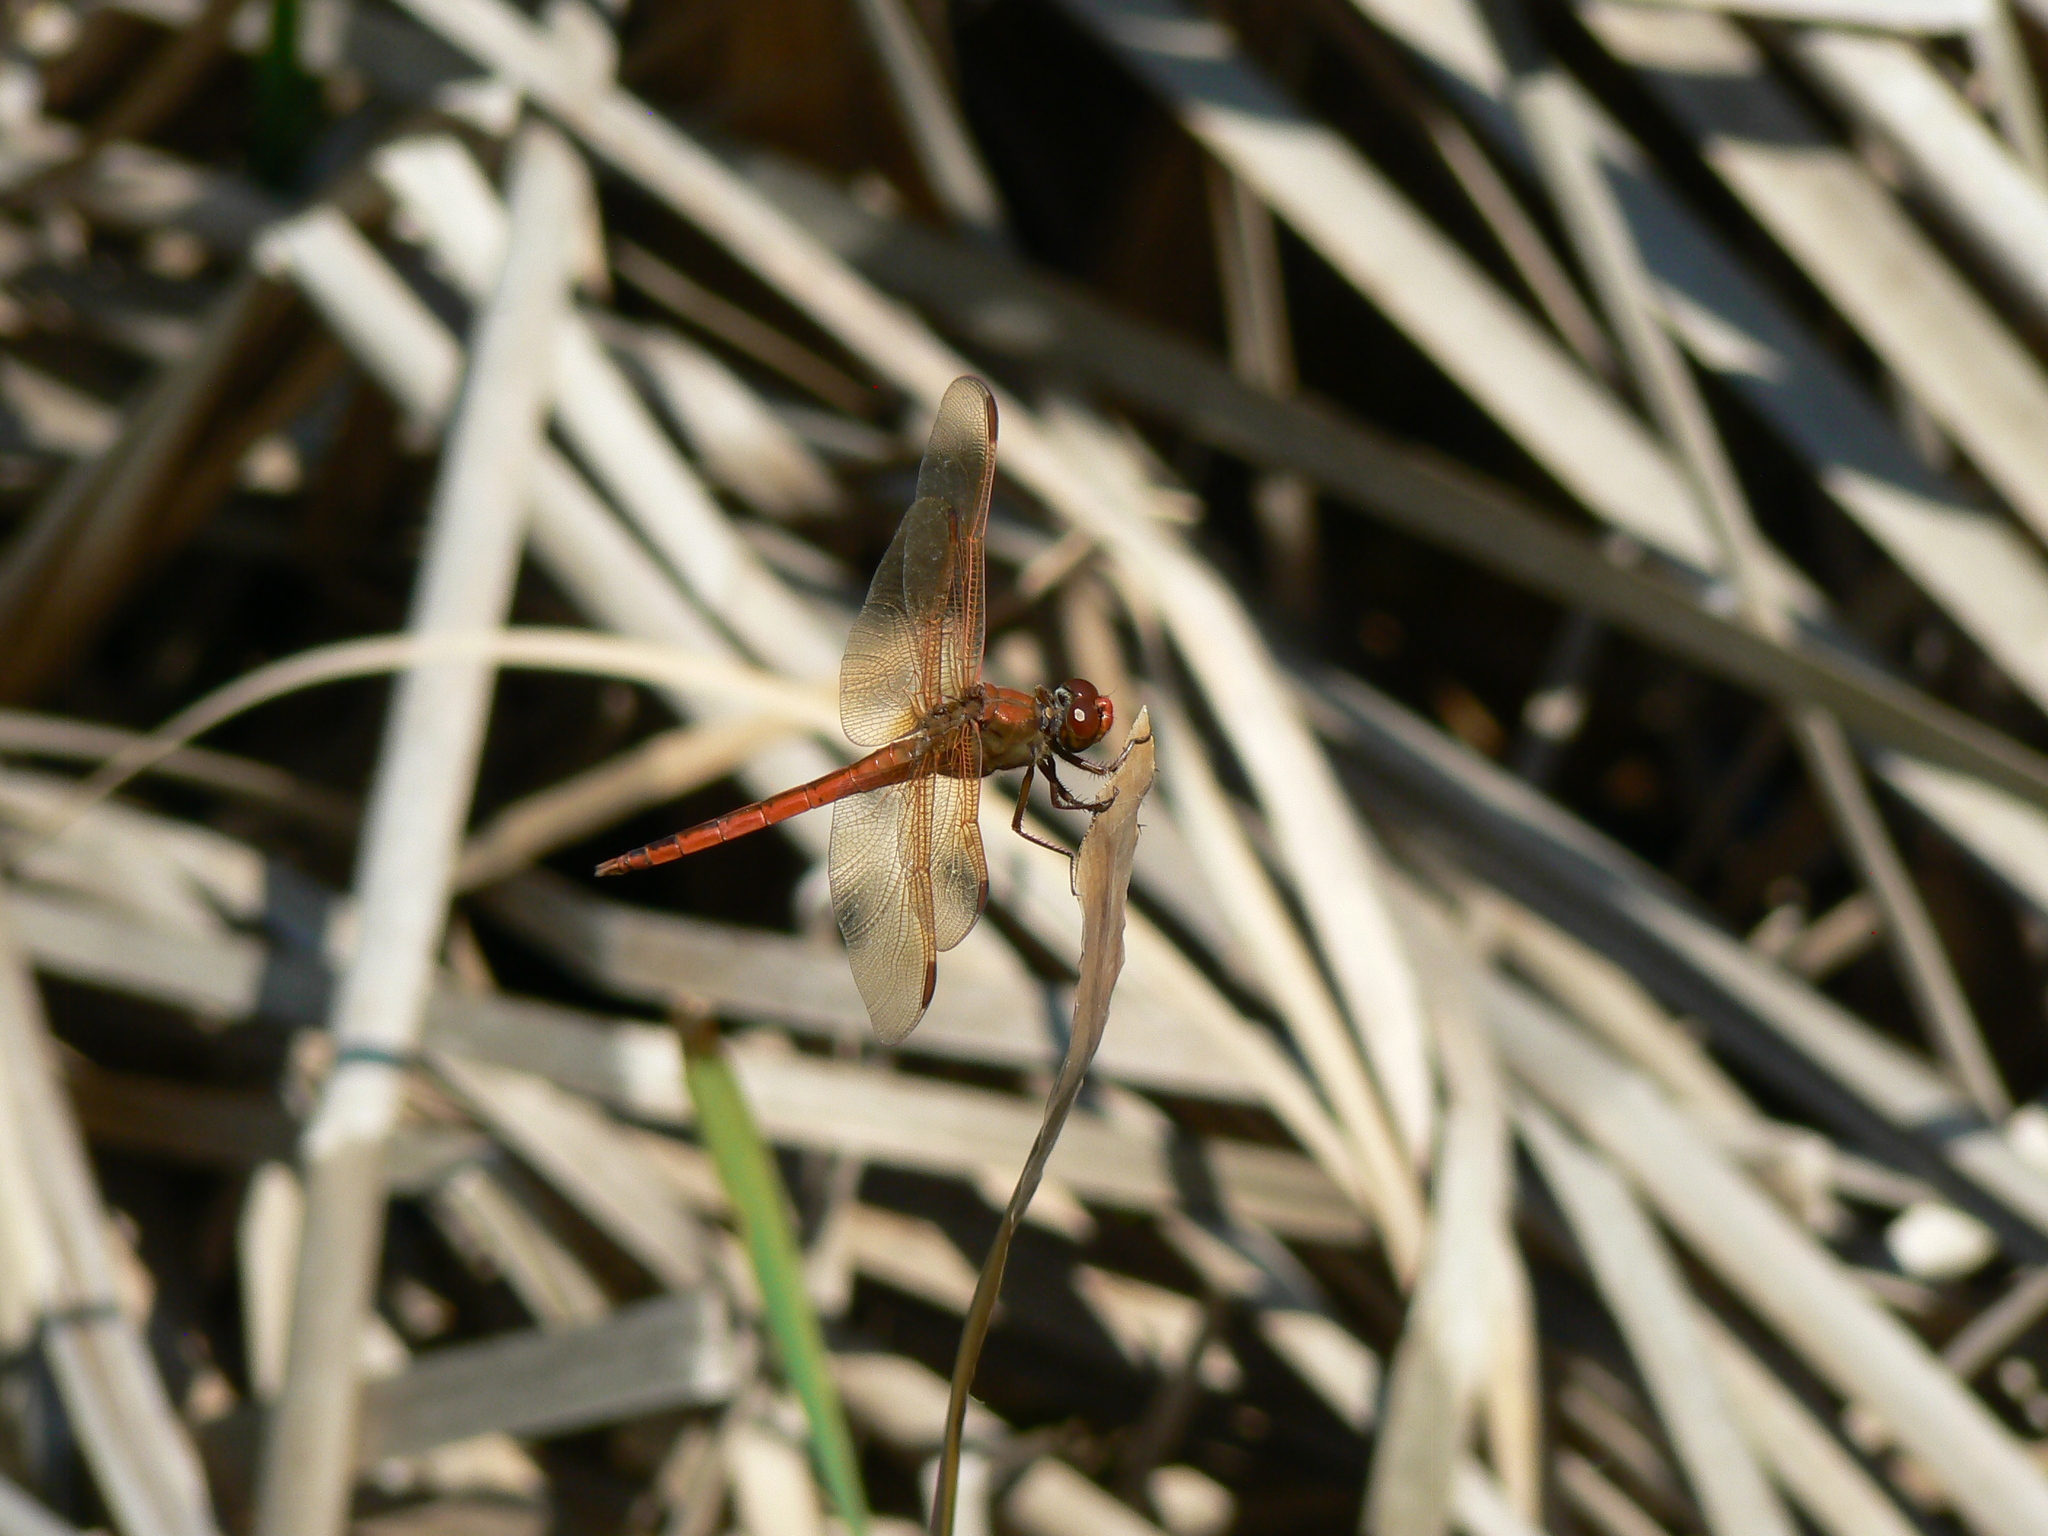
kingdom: Animalia
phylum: Arthropoda
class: Insecta
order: Odonata
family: Libellulidae
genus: Libellula
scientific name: Libellula needhami
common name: Needham's skimmer
